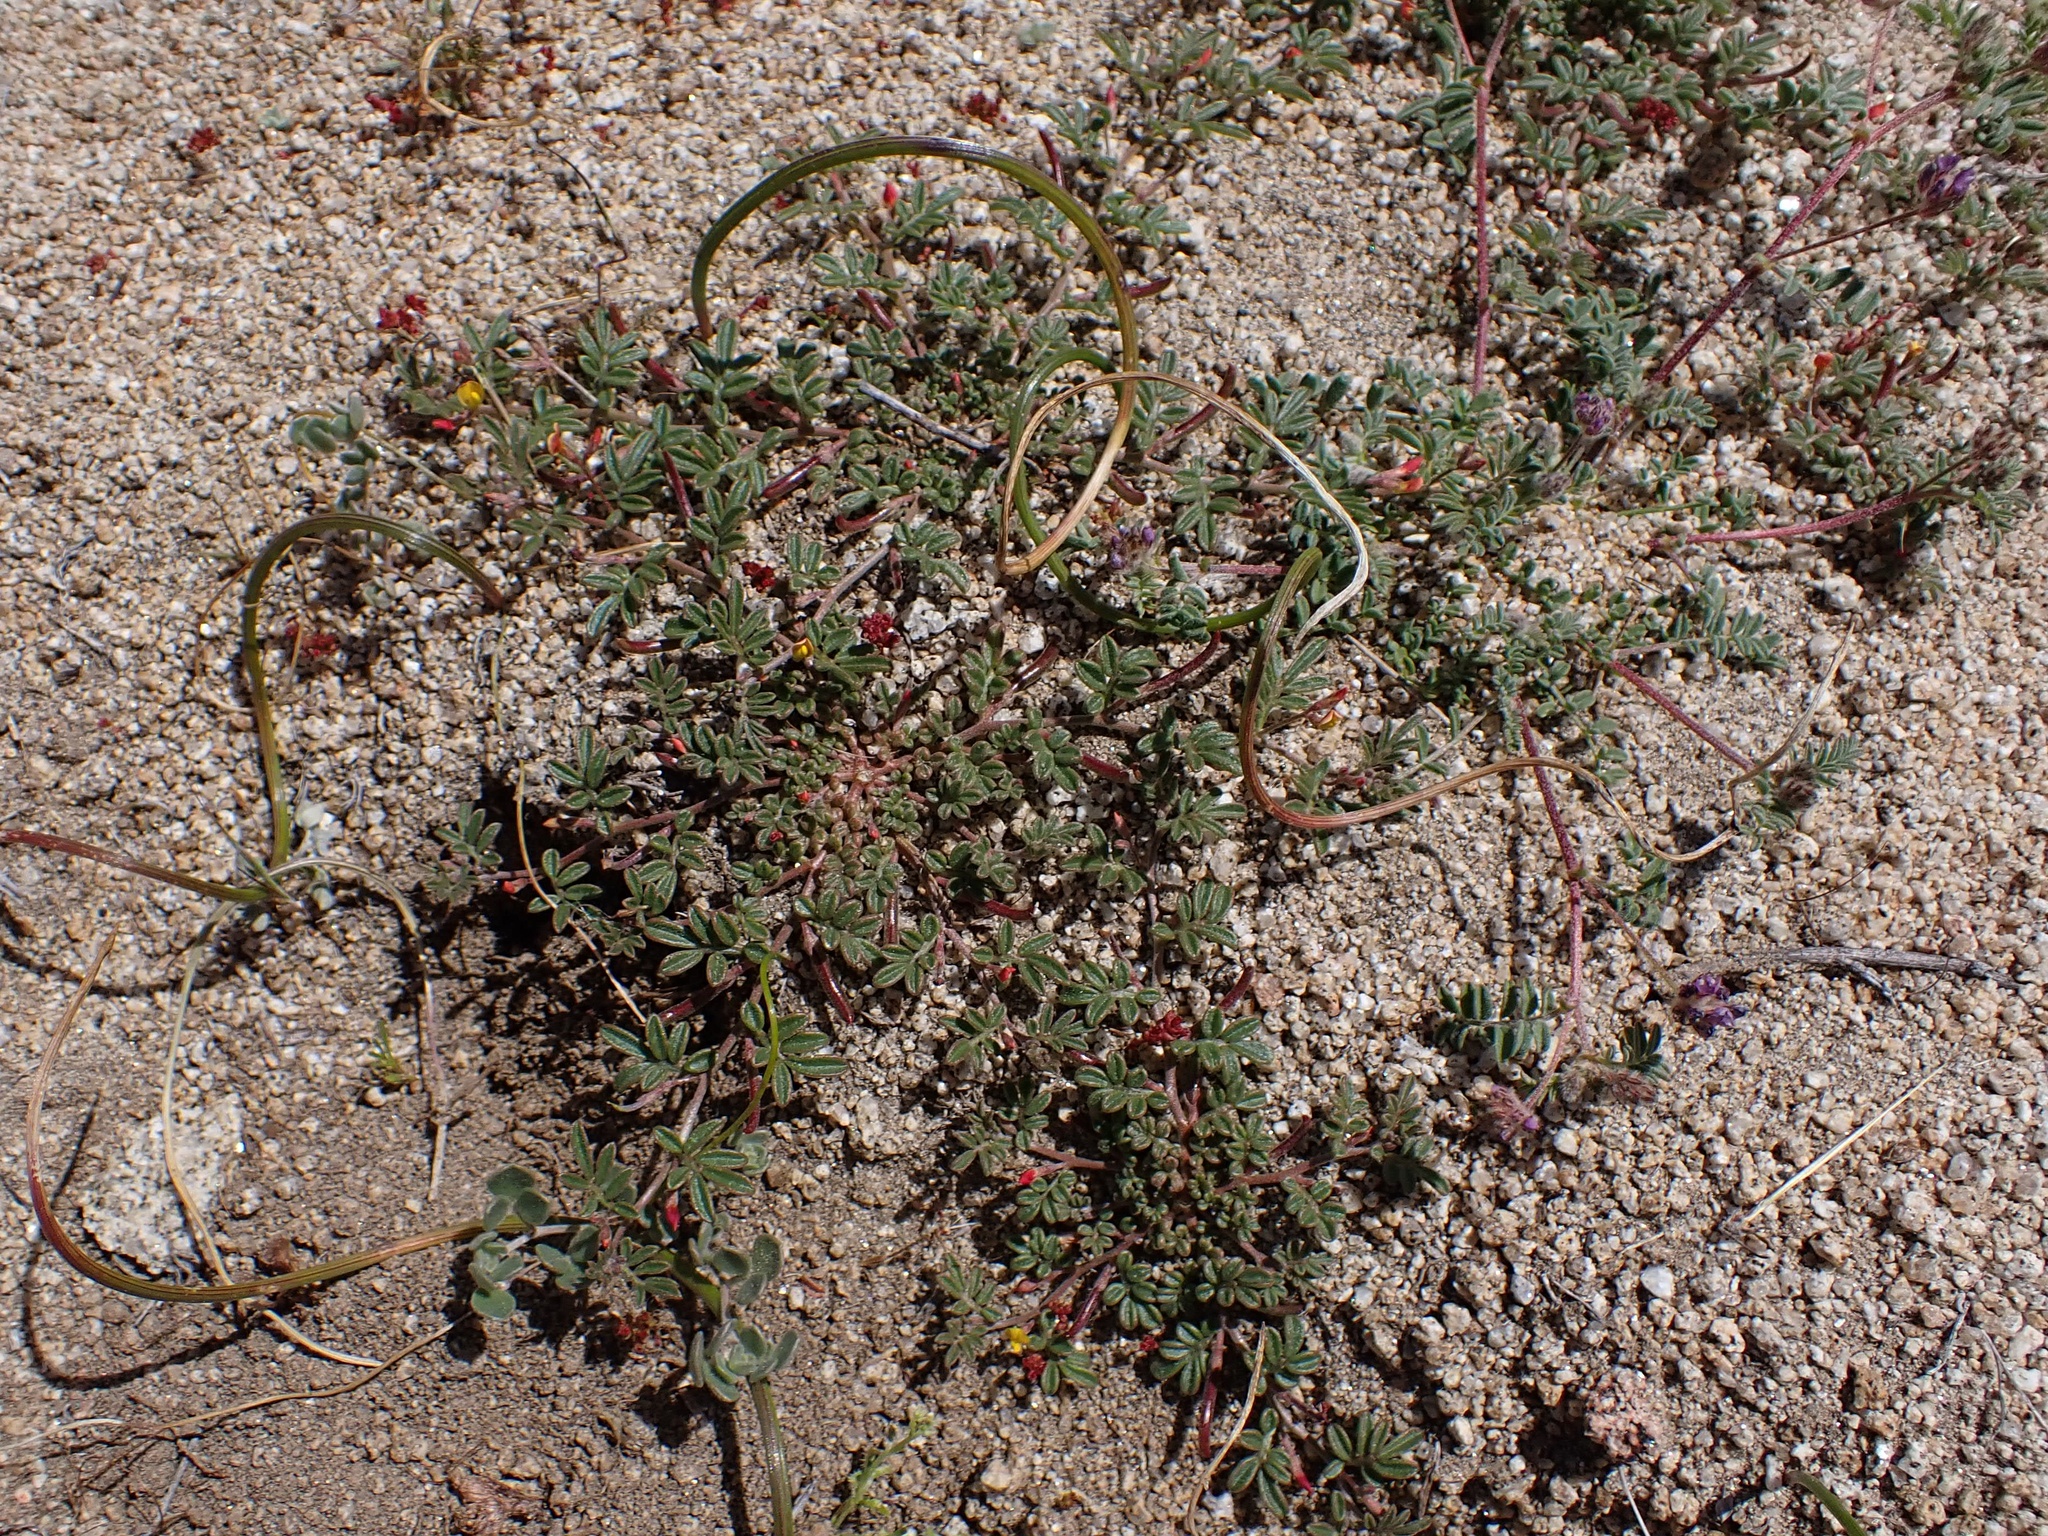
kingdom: Plantae
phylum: Tracheophyta
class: Magnoliopsida
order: Fabales
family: Fabaceae
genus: Acmispon
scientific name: Acmispon strigosus
